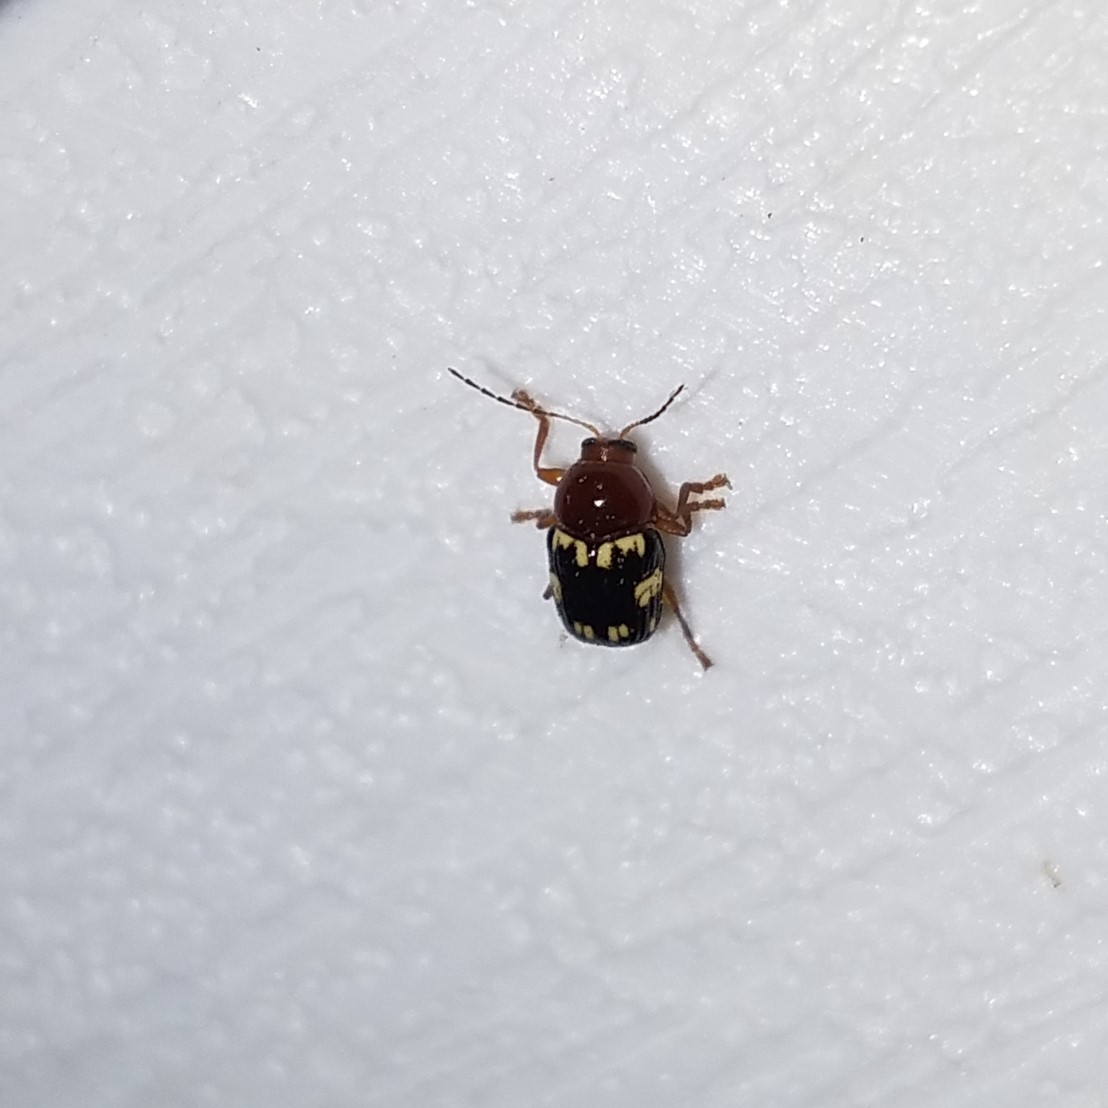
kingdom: Animalia
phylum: Arthropoda
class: Insecta
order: Coleoptera
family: Chrysomelidae
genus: Cryptocephalus
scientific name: Cryptocephalus badius
